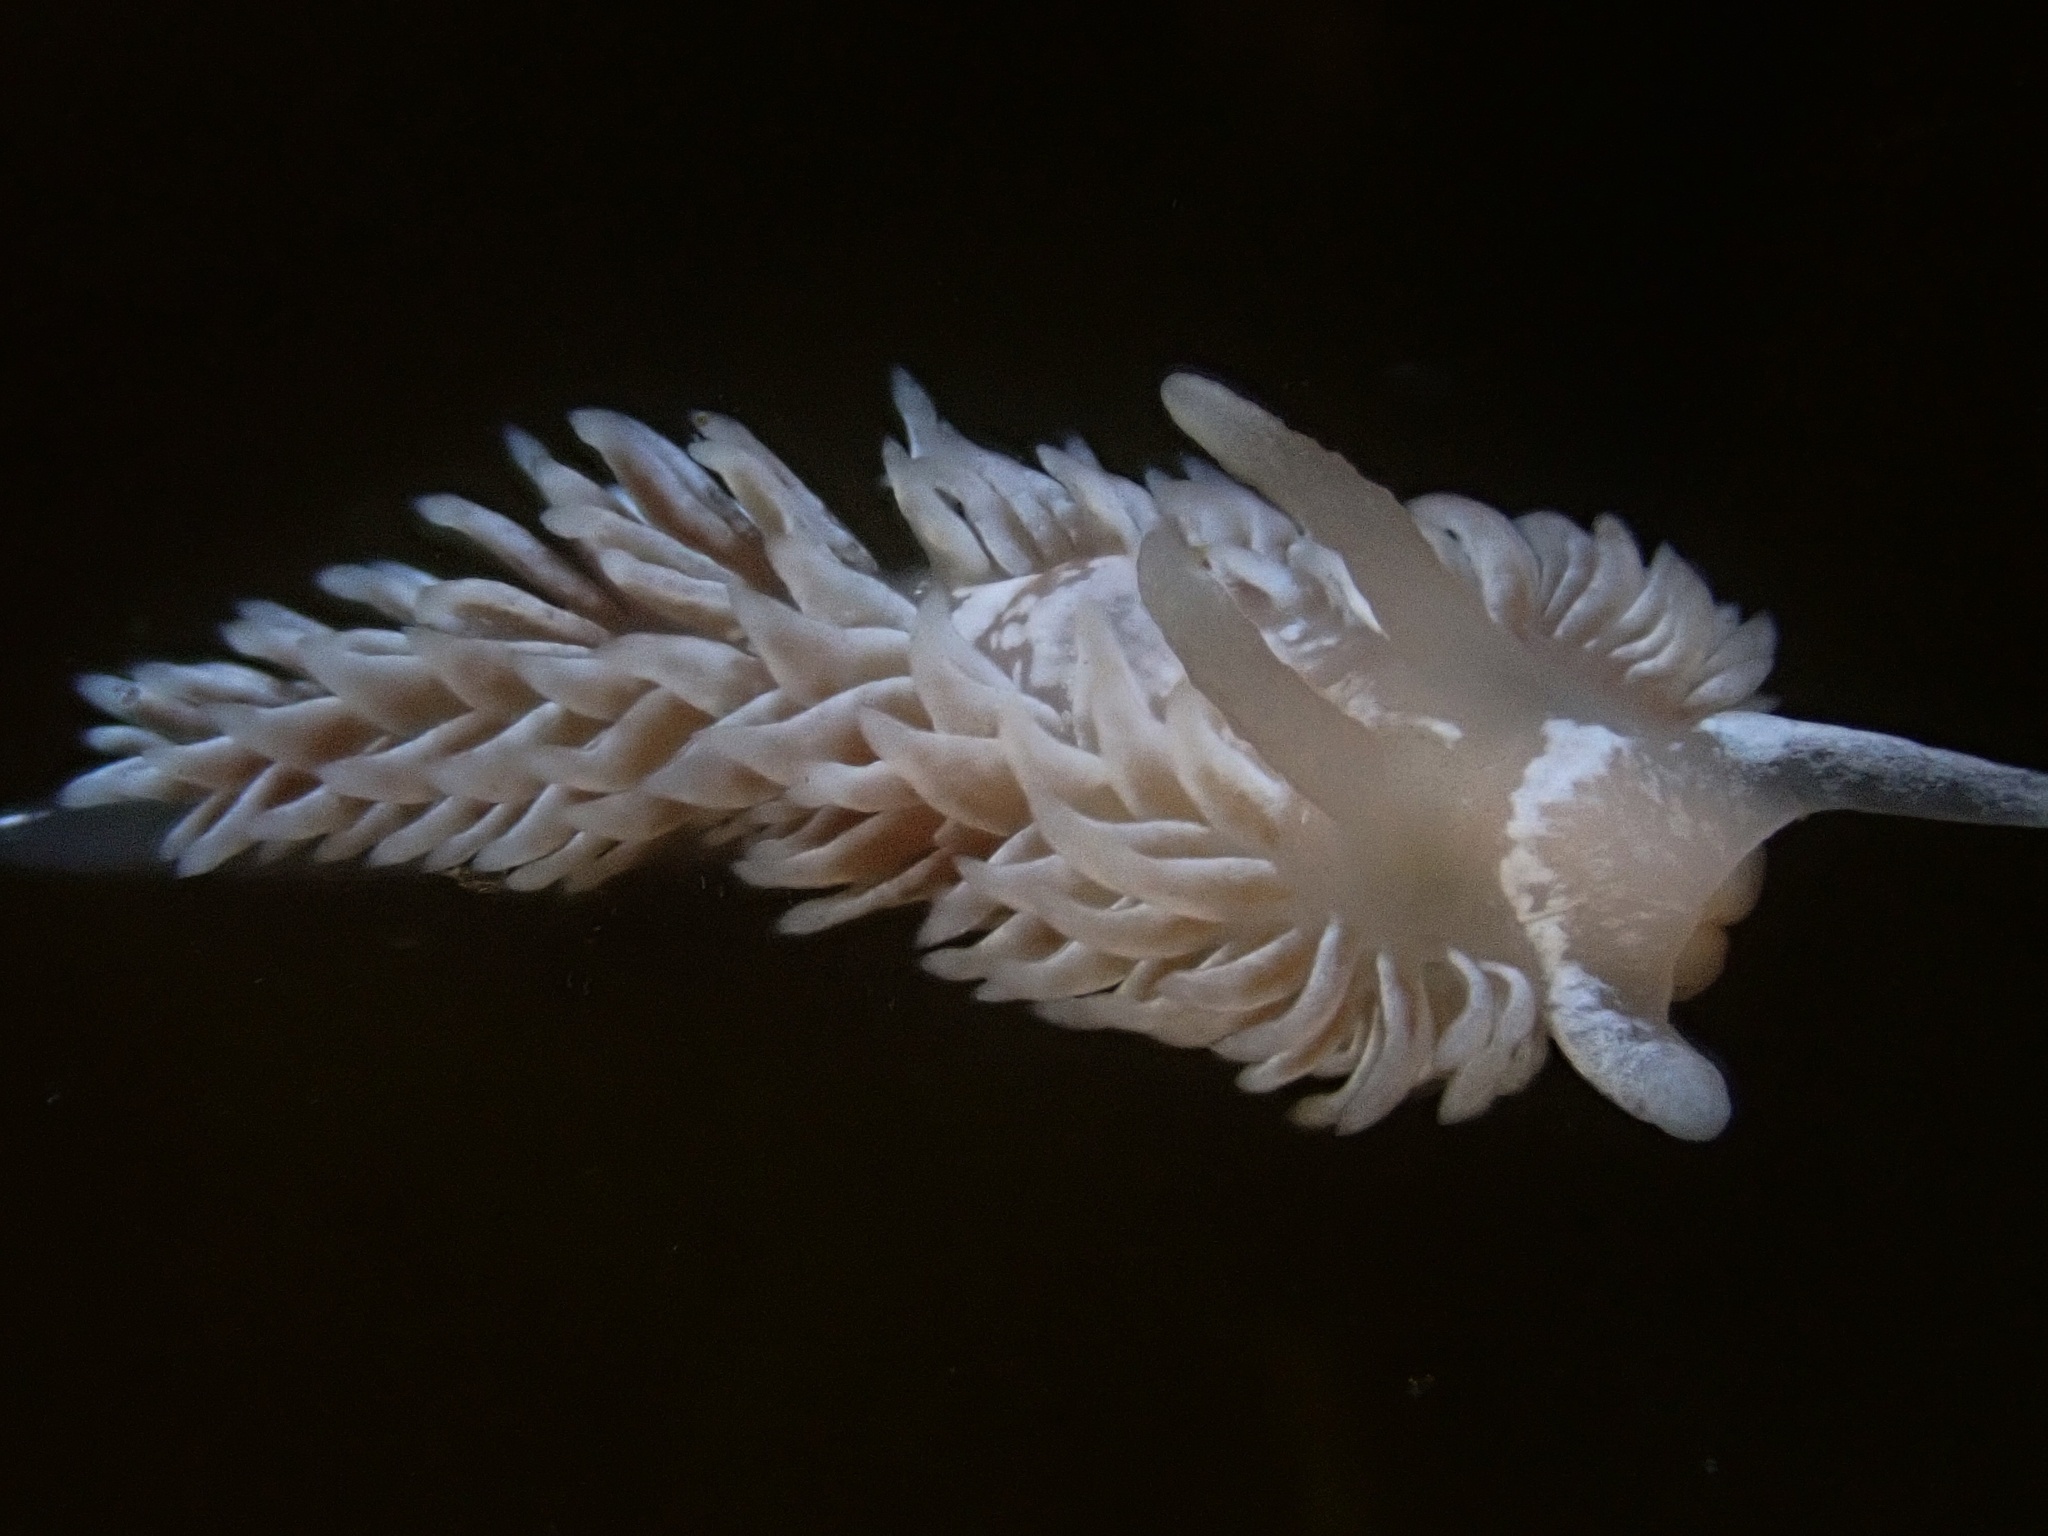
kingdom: Animalia
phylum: Mollusca
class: Gastropoda
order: Nudibranchia
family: Aeolidiidae
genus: Aeolidia
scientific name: Aeolidia loui
